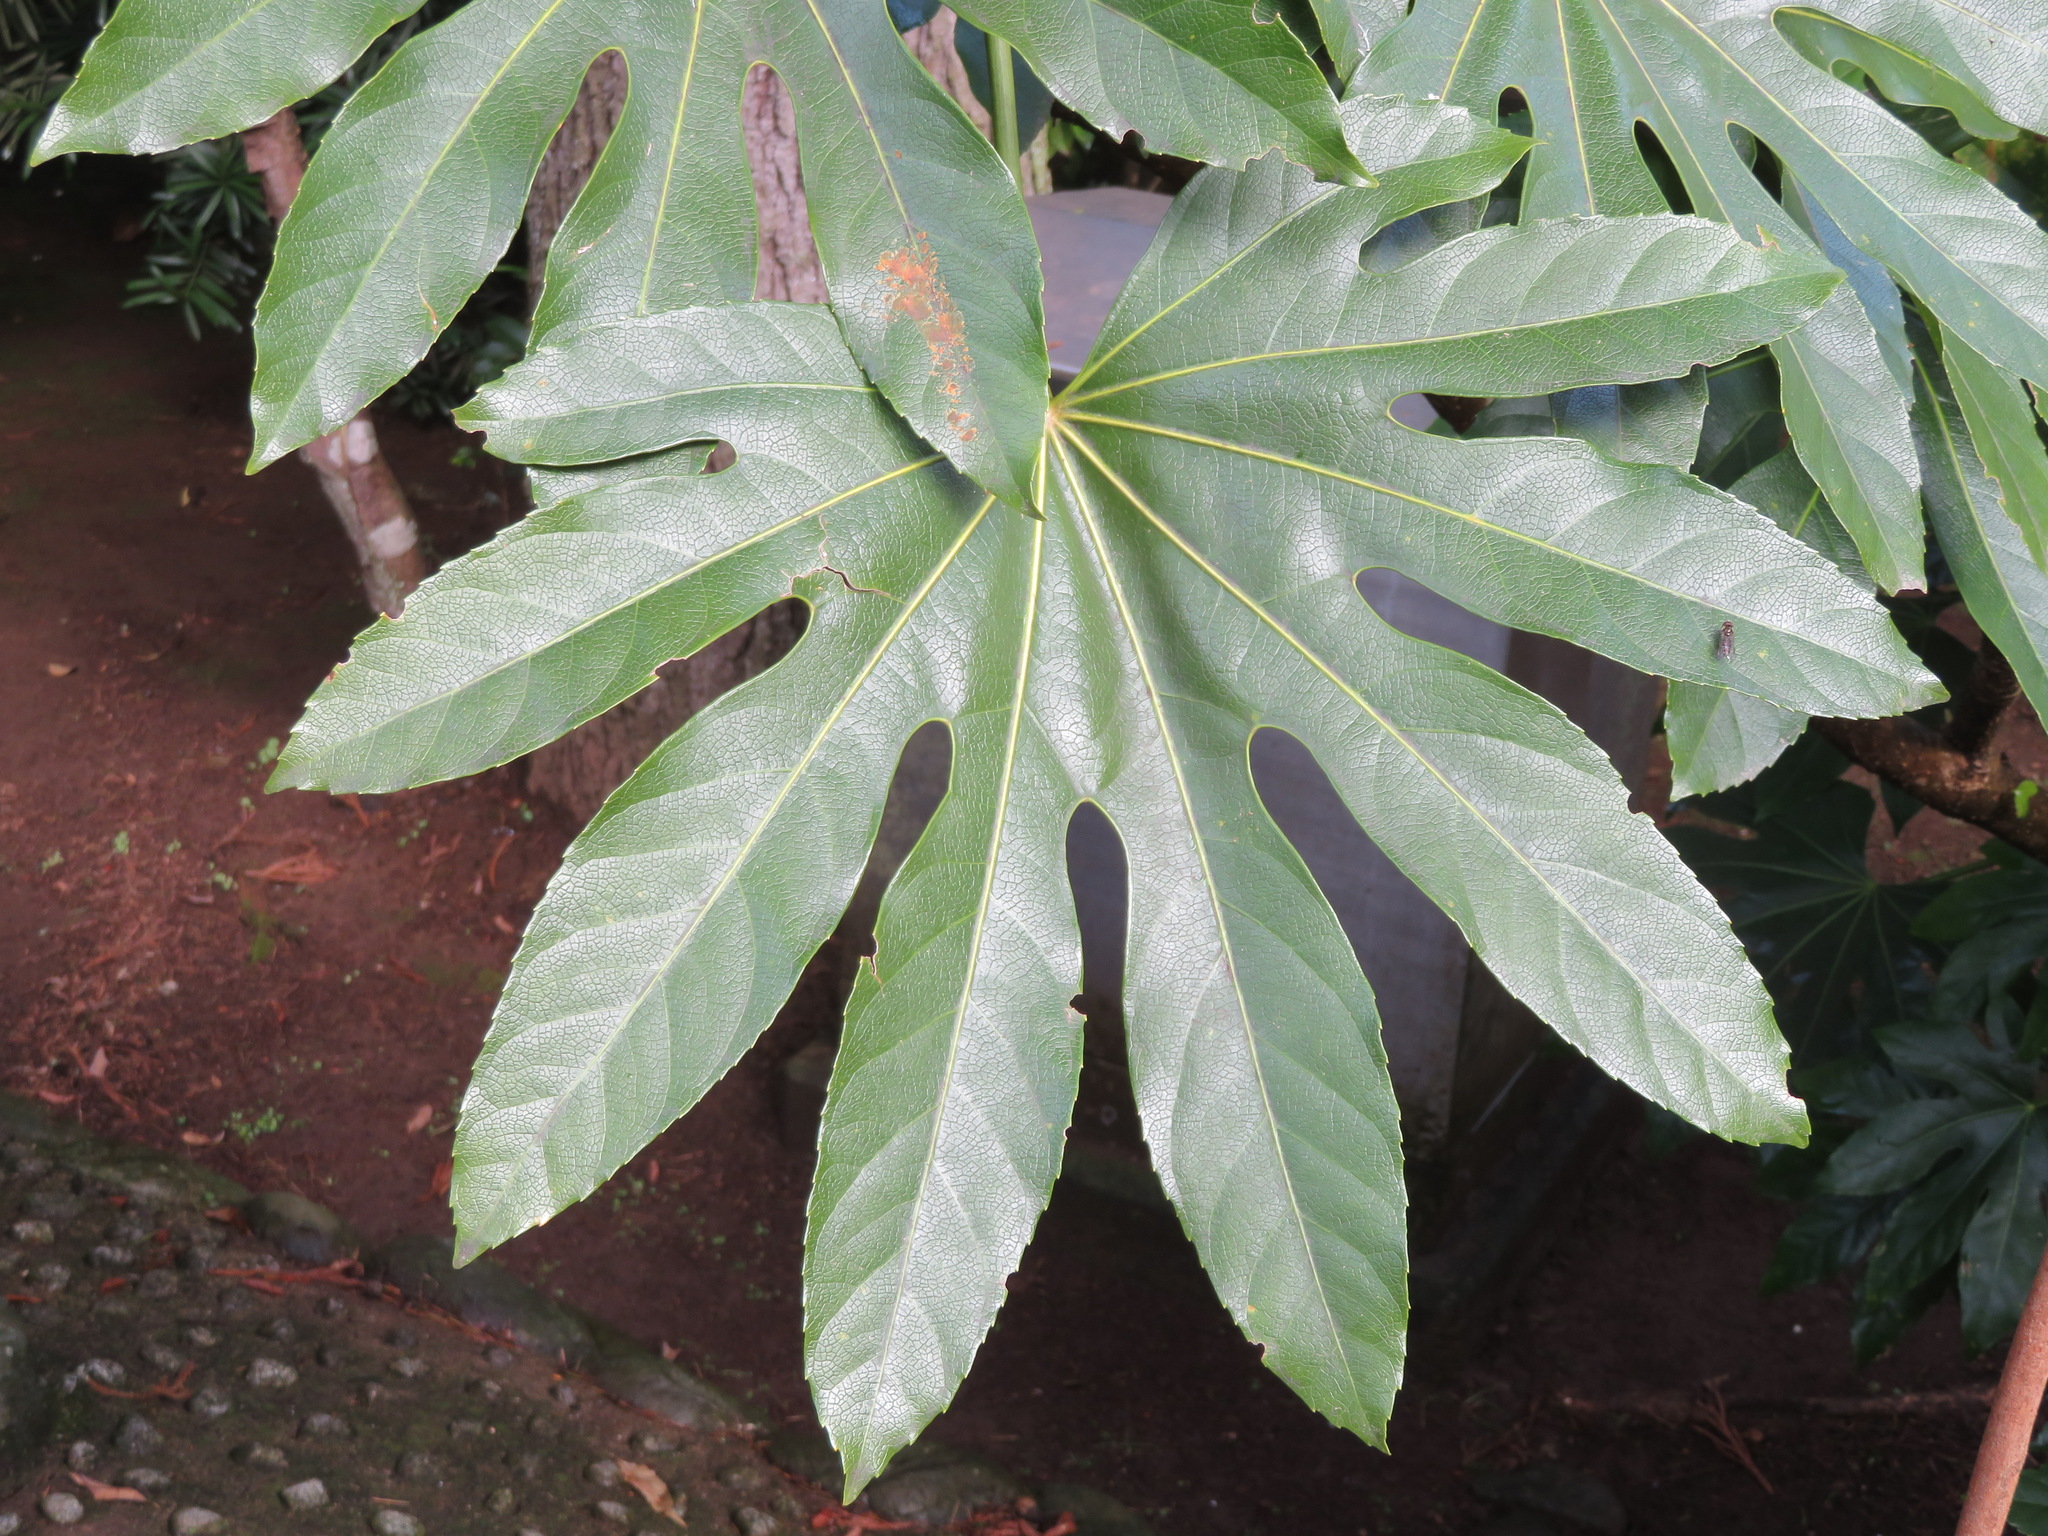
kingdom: Plantae
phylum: Tracheophyta
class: Magnoliopsida
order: Apiales
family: Araliaceae
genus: Fatsia
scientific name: Fatsia japonica
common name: Fatsia
